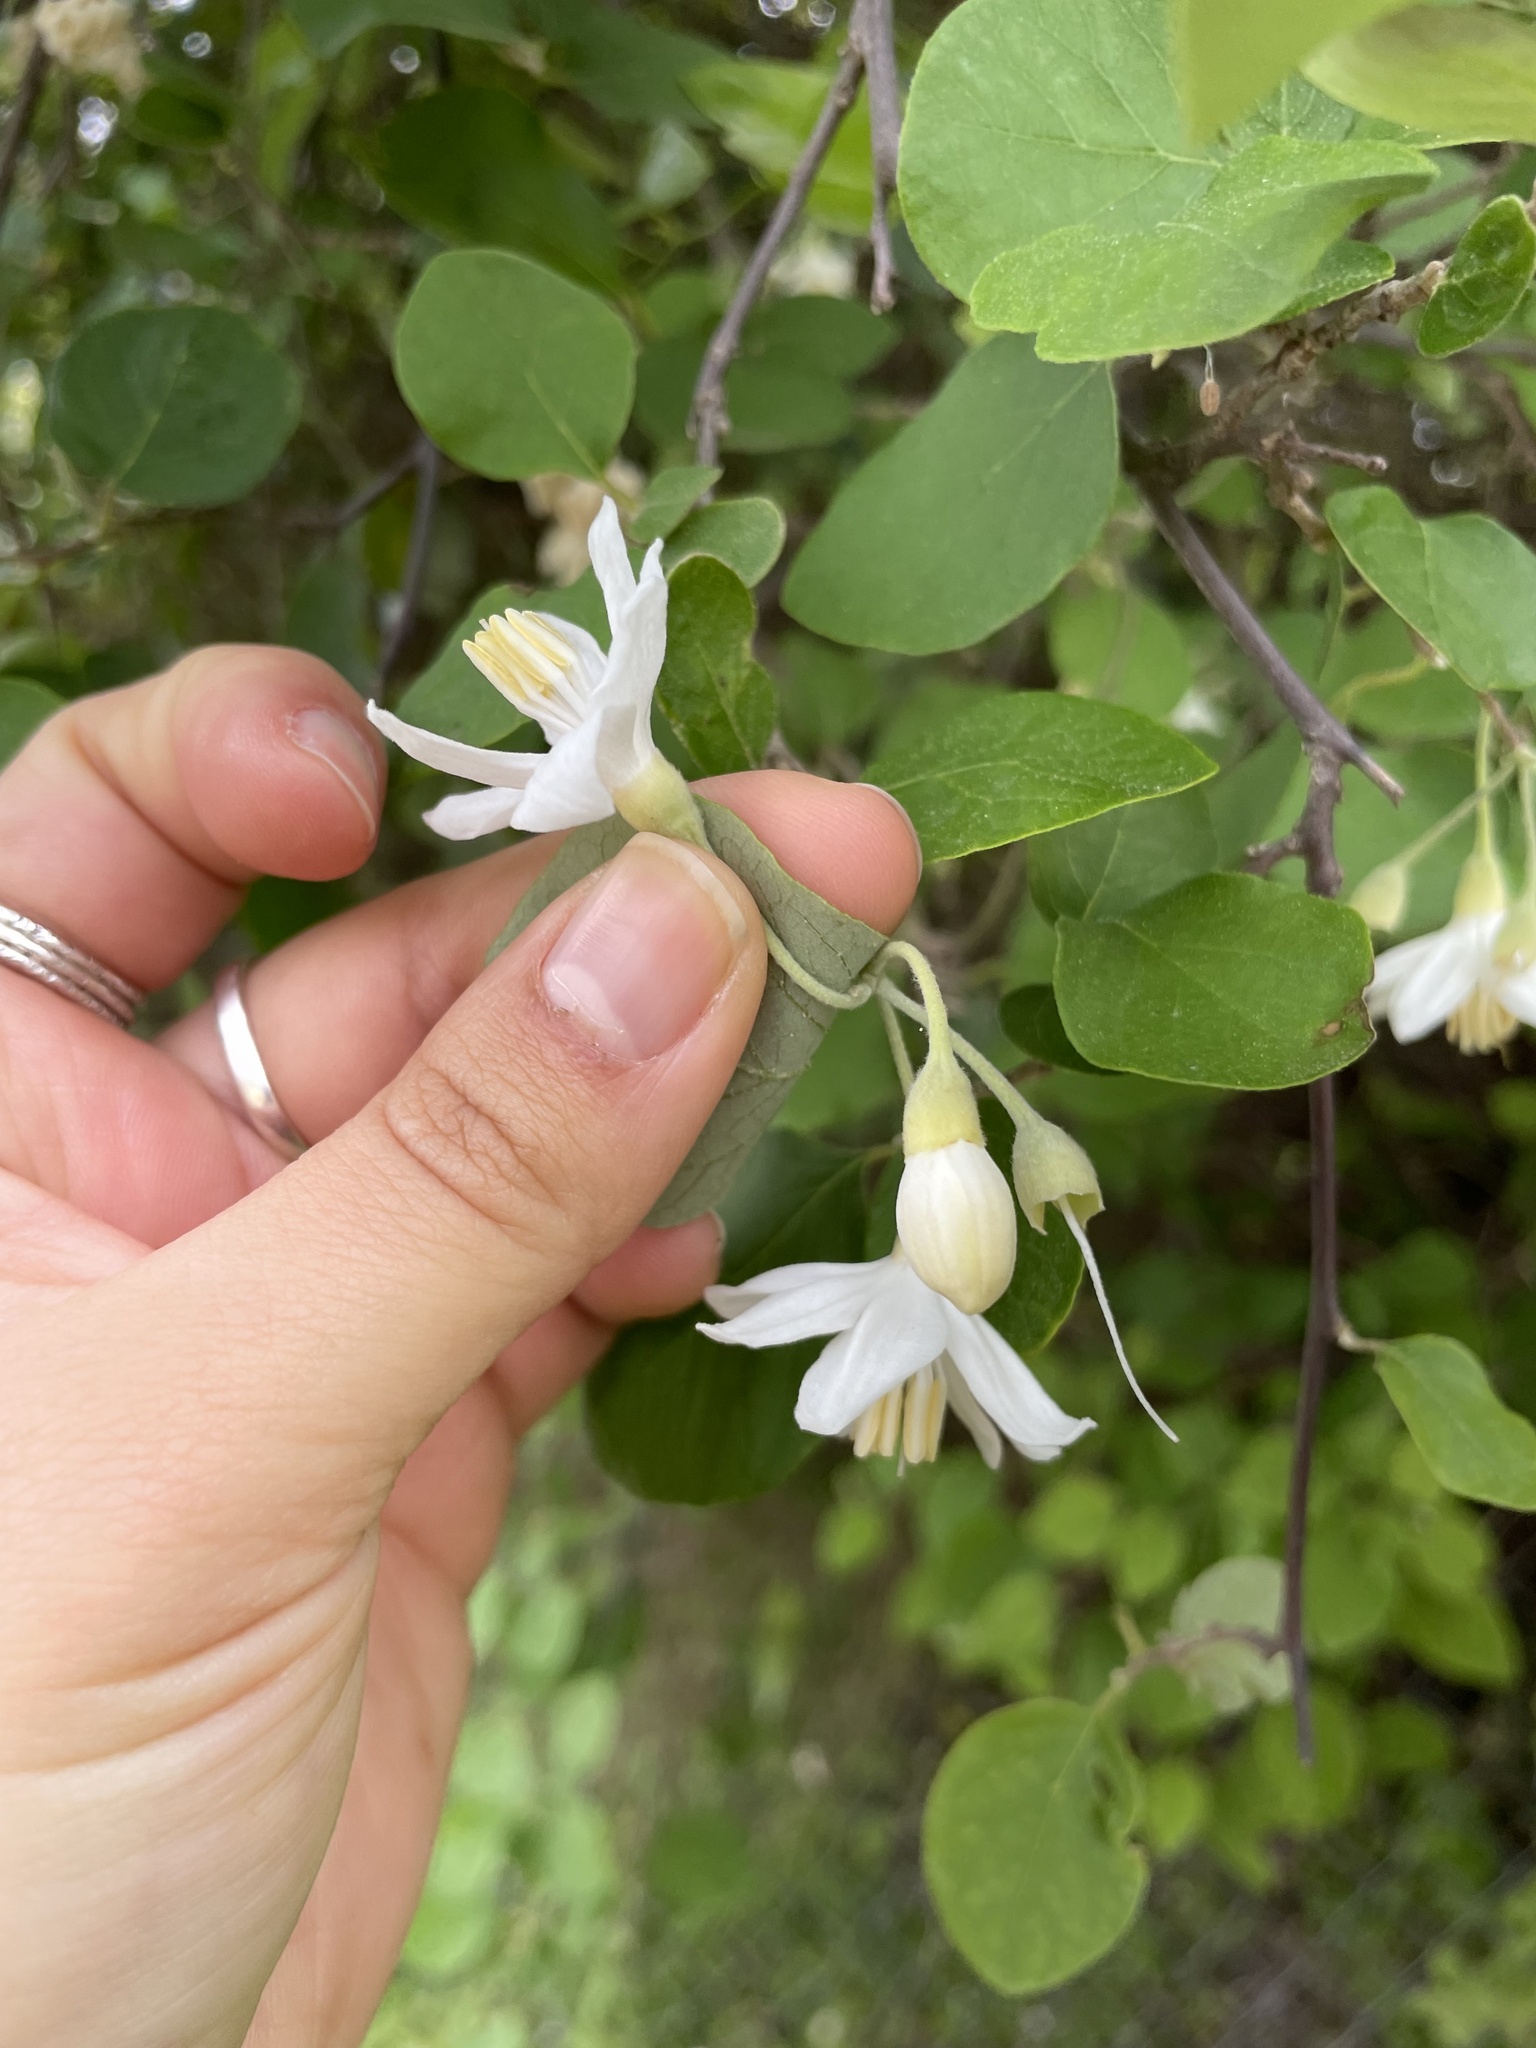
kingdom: Plantae
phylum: Tracheophyta
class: Magnoliopsida
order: Ericales
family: Styracaceae
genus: Styrax
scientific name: Styrax officinalis
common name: Storax
